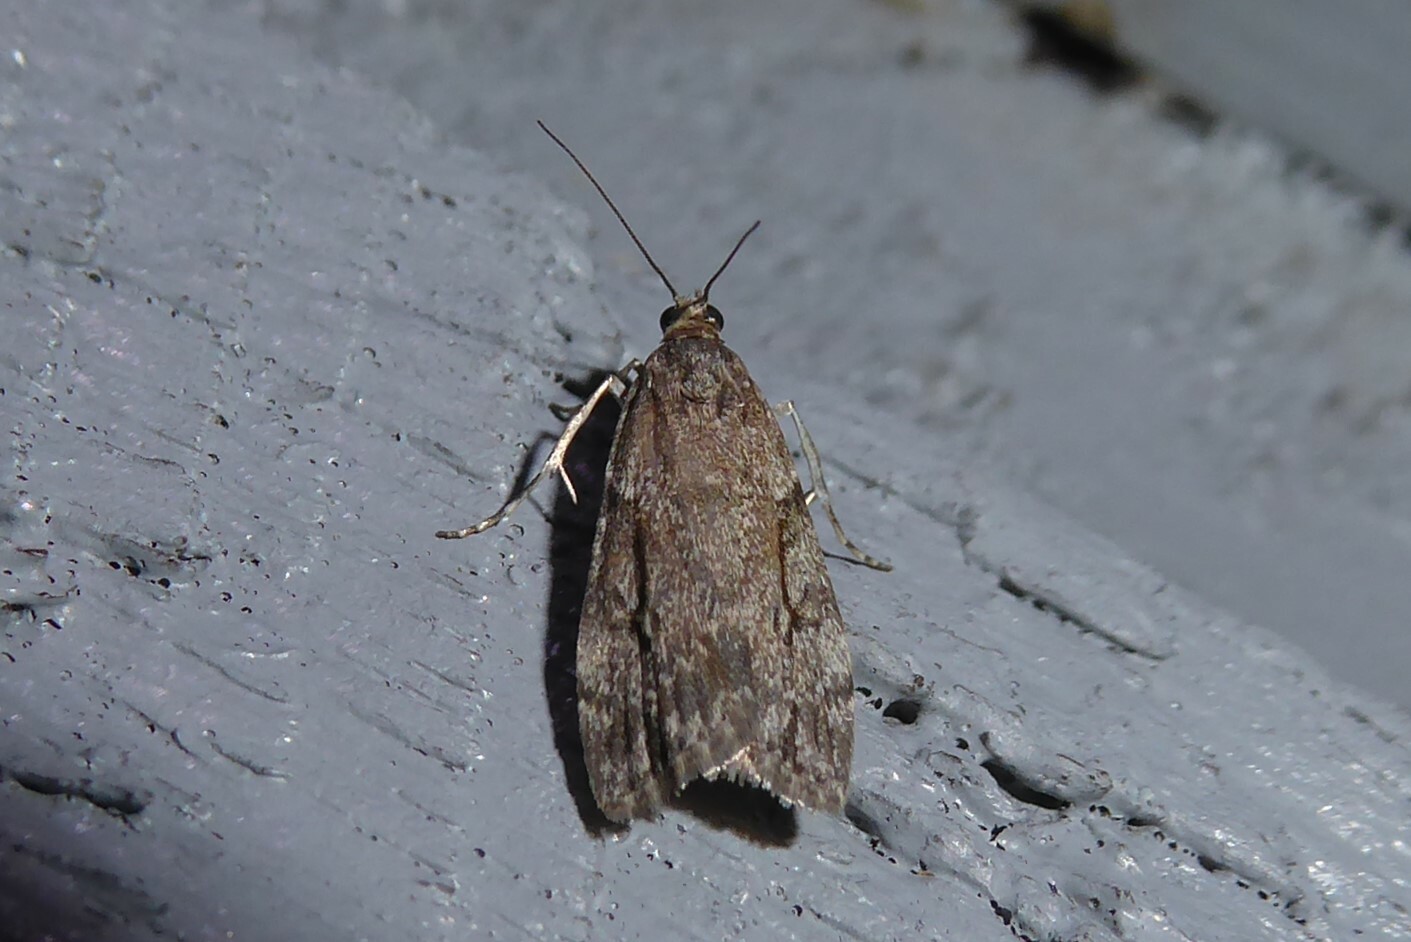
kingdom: Animalia
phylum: Arthropoda
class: Insecta
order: Lepidoptera
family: Crambidae
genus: Eudonia
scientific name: Eudonia cymatias
